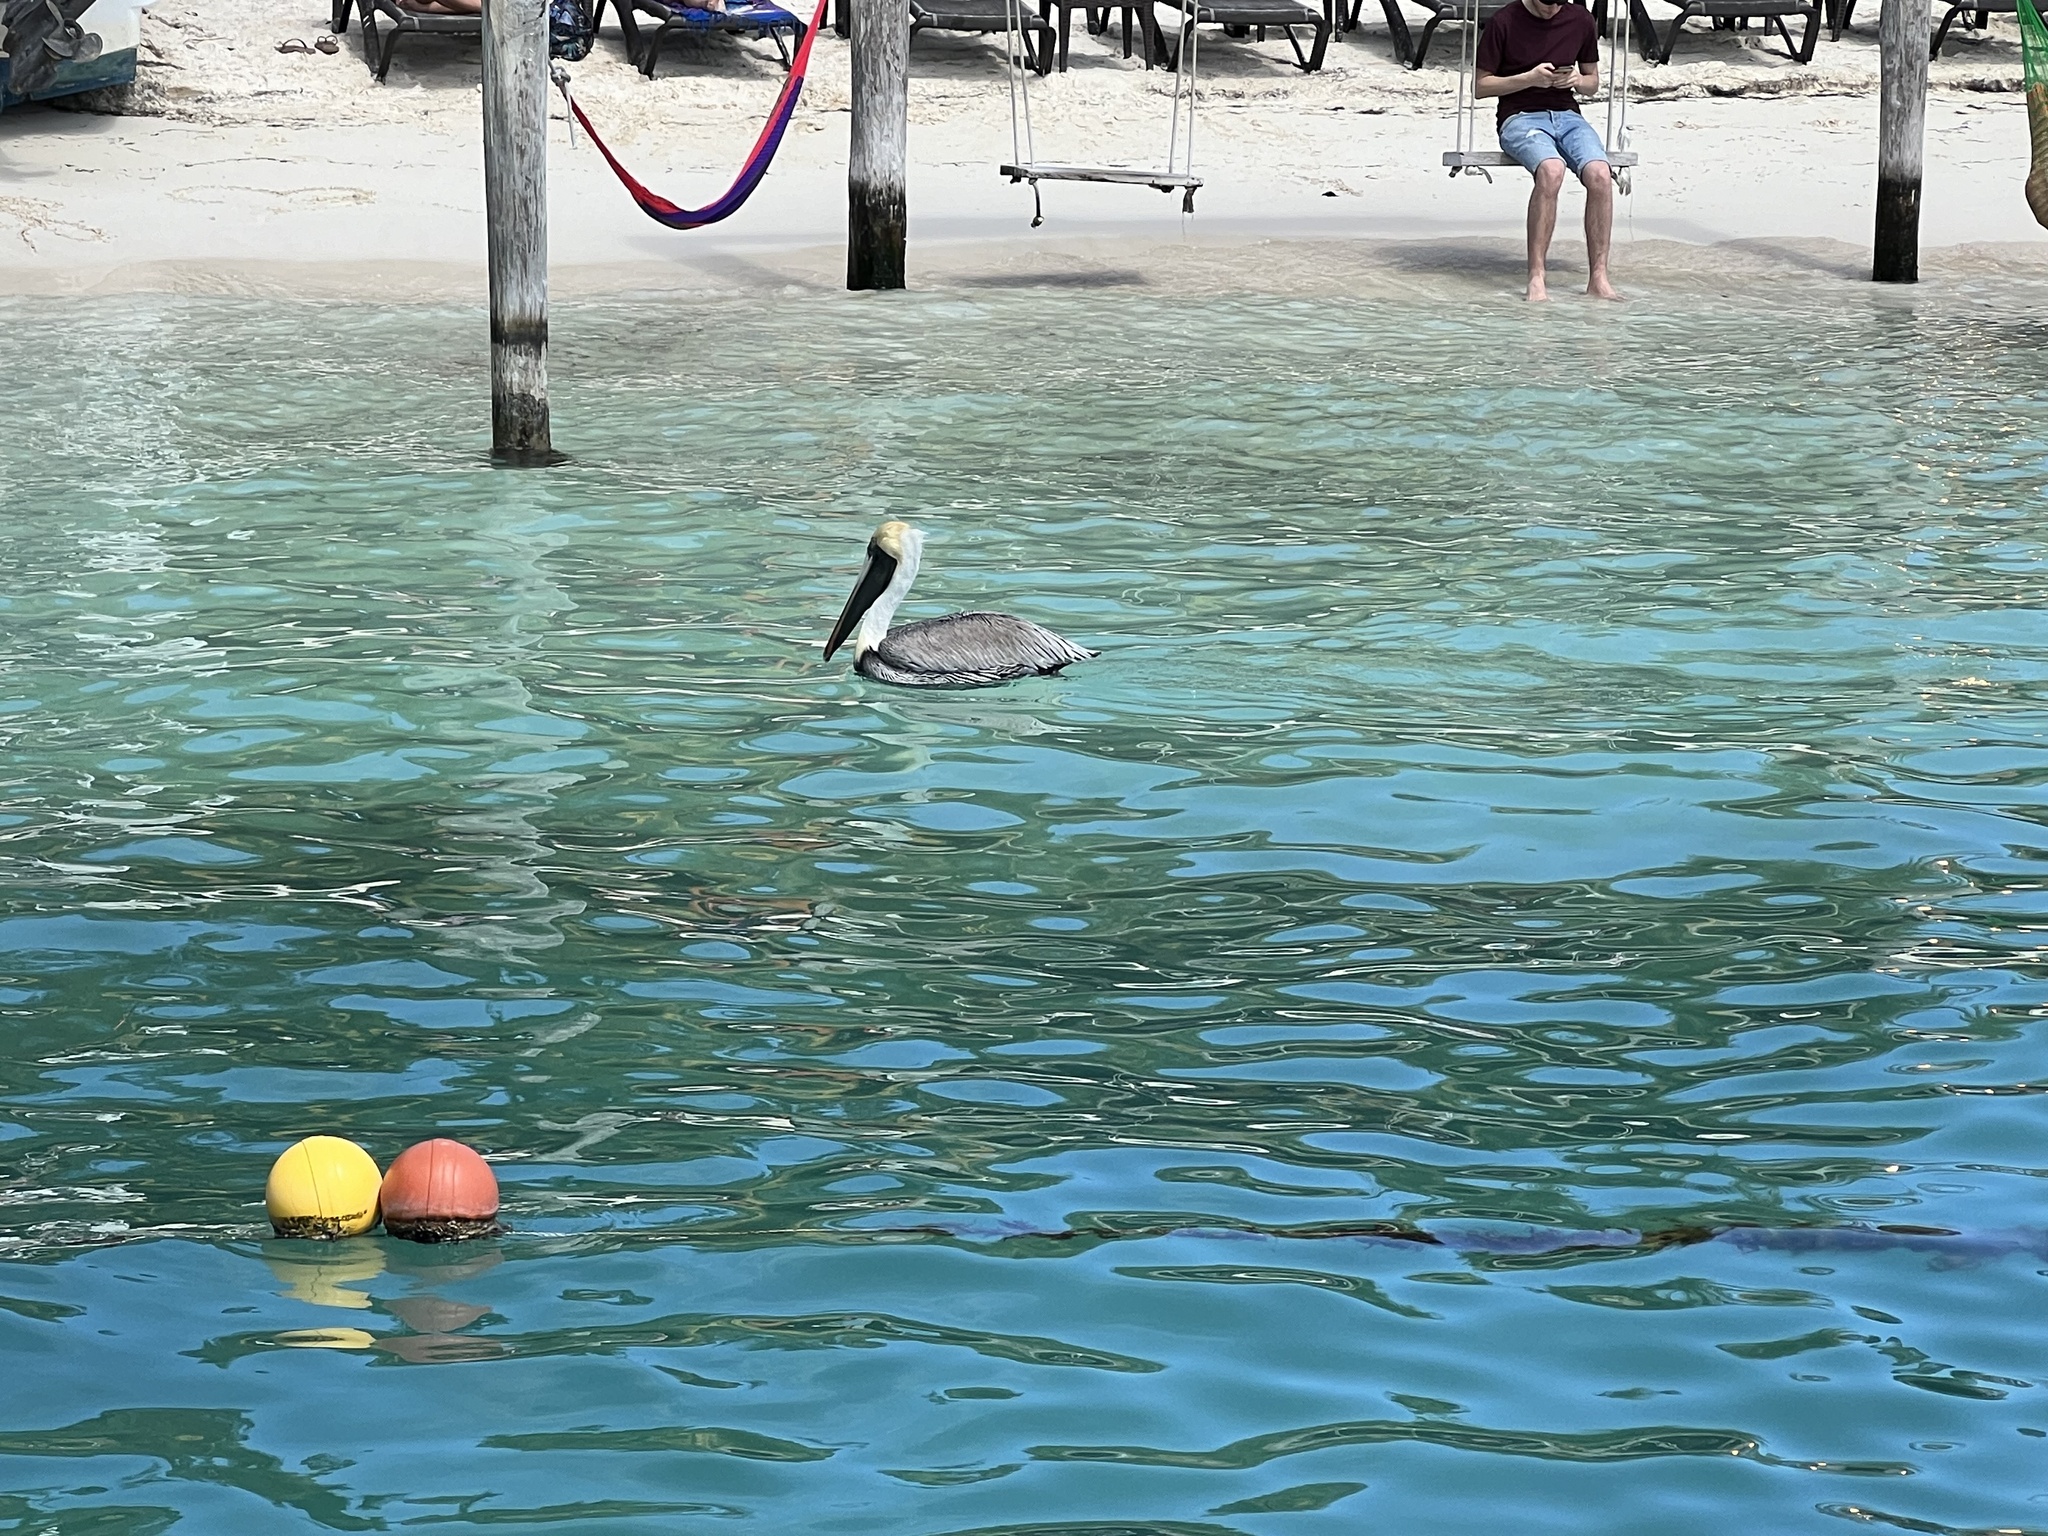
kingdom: Animalia
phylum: Chordata
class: Aves
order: Pelecaniformes
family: Pelecanidae
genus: Pelecanus
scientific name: Pelecanus occidentalis
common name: Brown pelican
